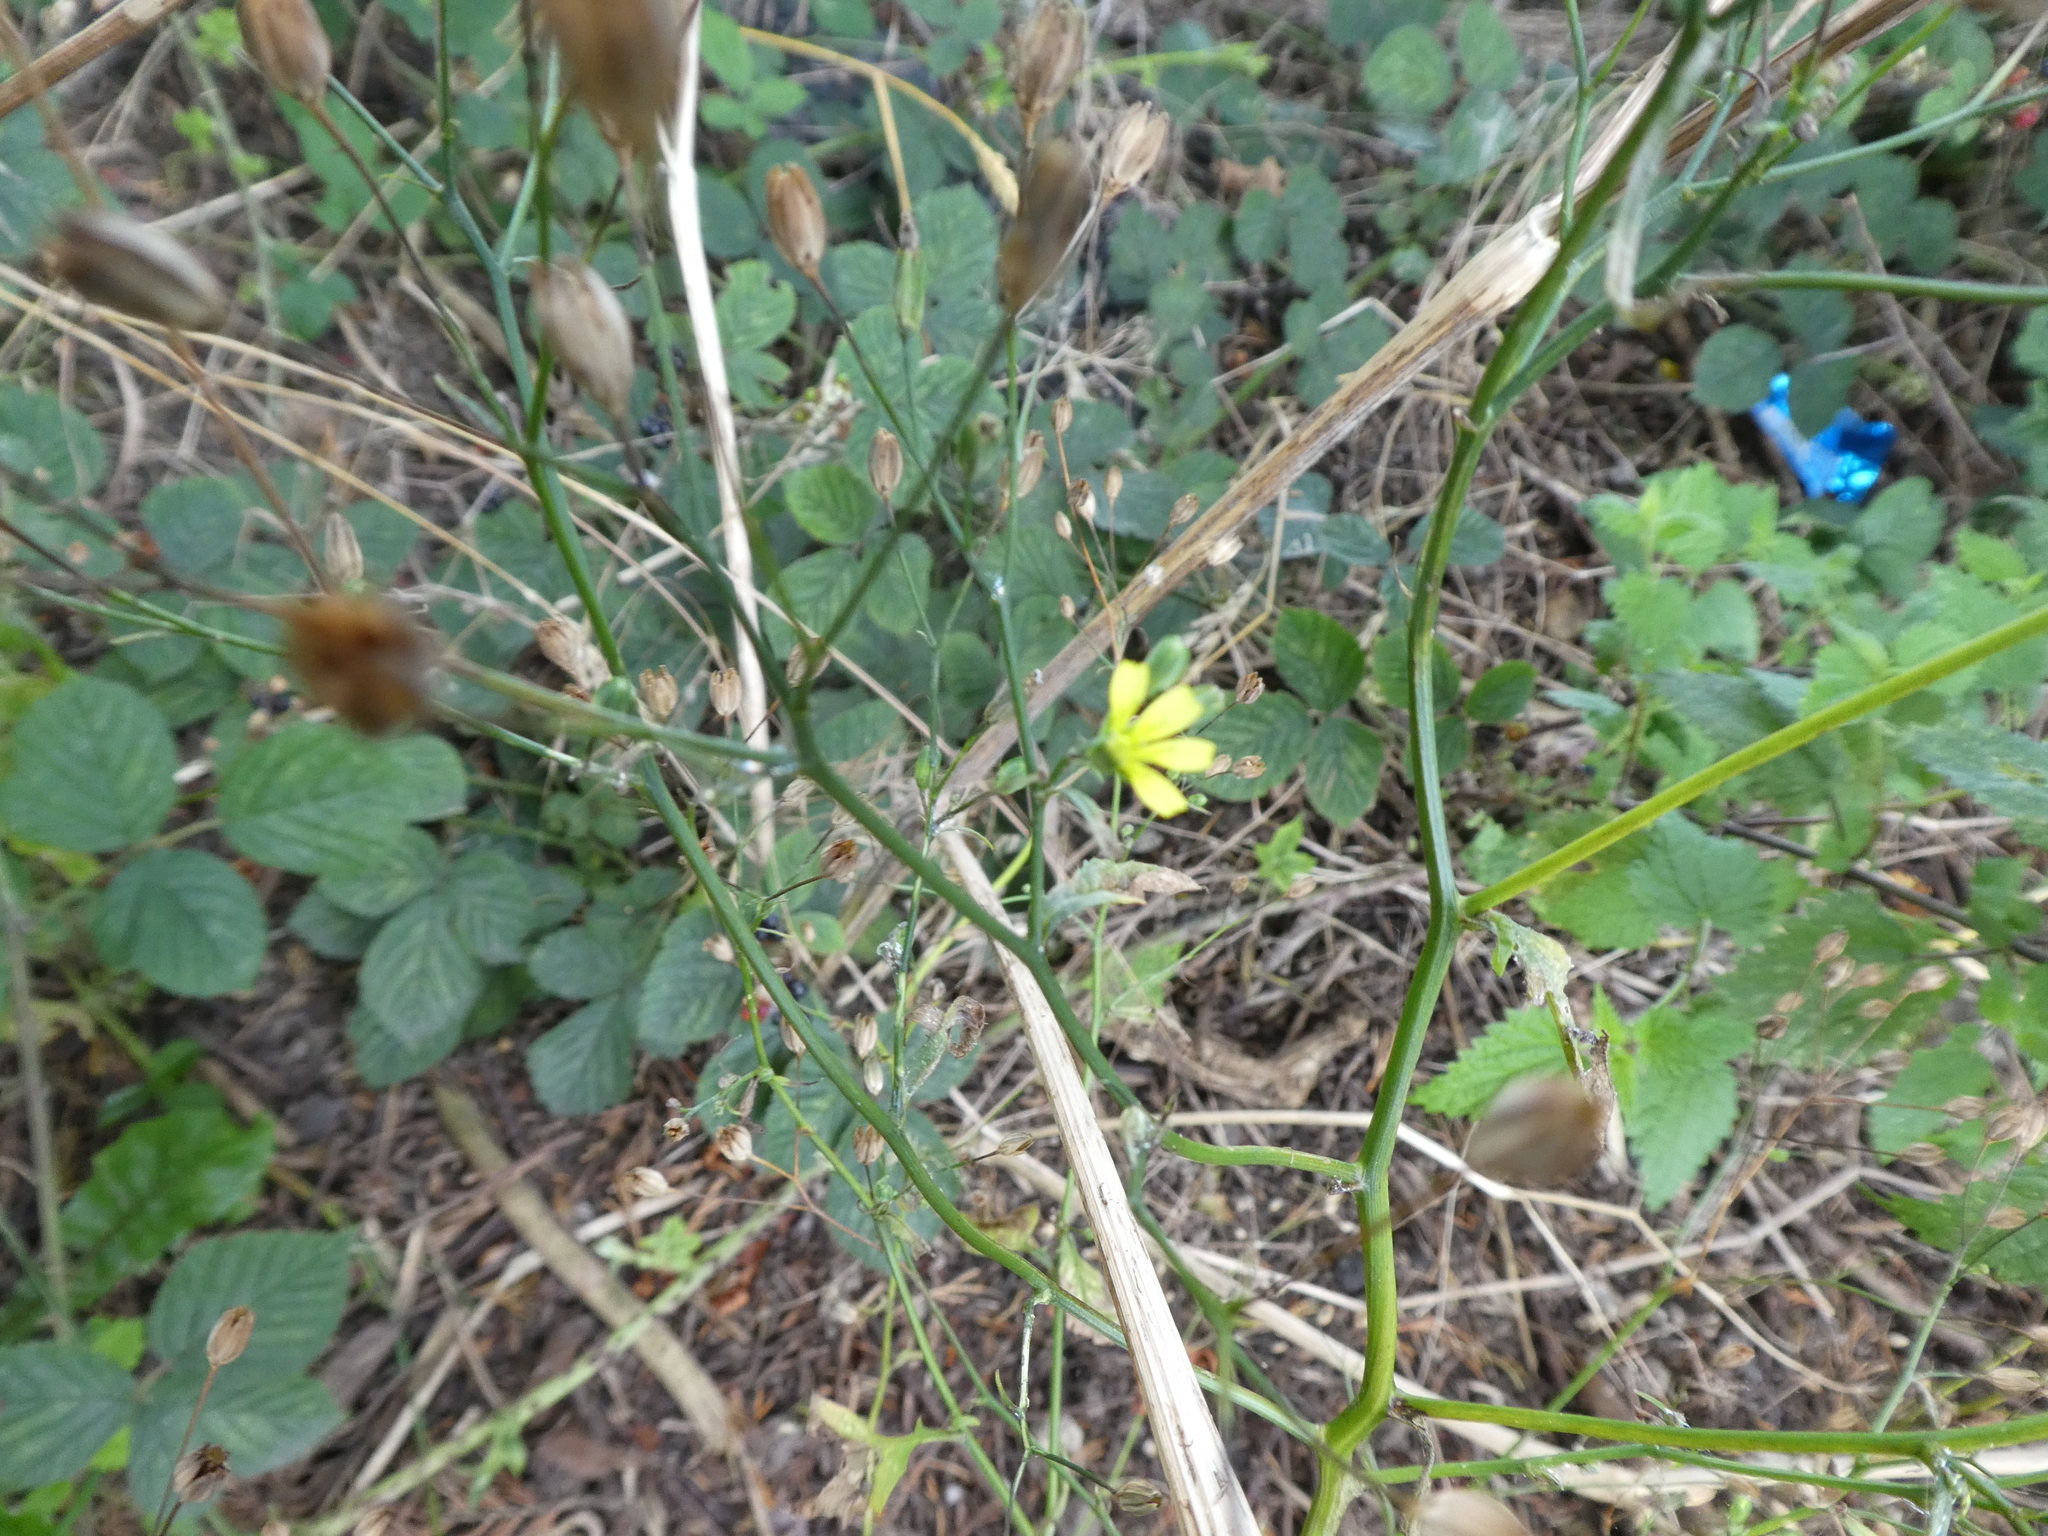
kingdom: Plantae
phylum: Tracheophyta
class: Magnoliopsida
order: Asterales
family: Asteraceae
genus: Lapsana
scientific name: Lapsana communis
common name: Nipplewort
